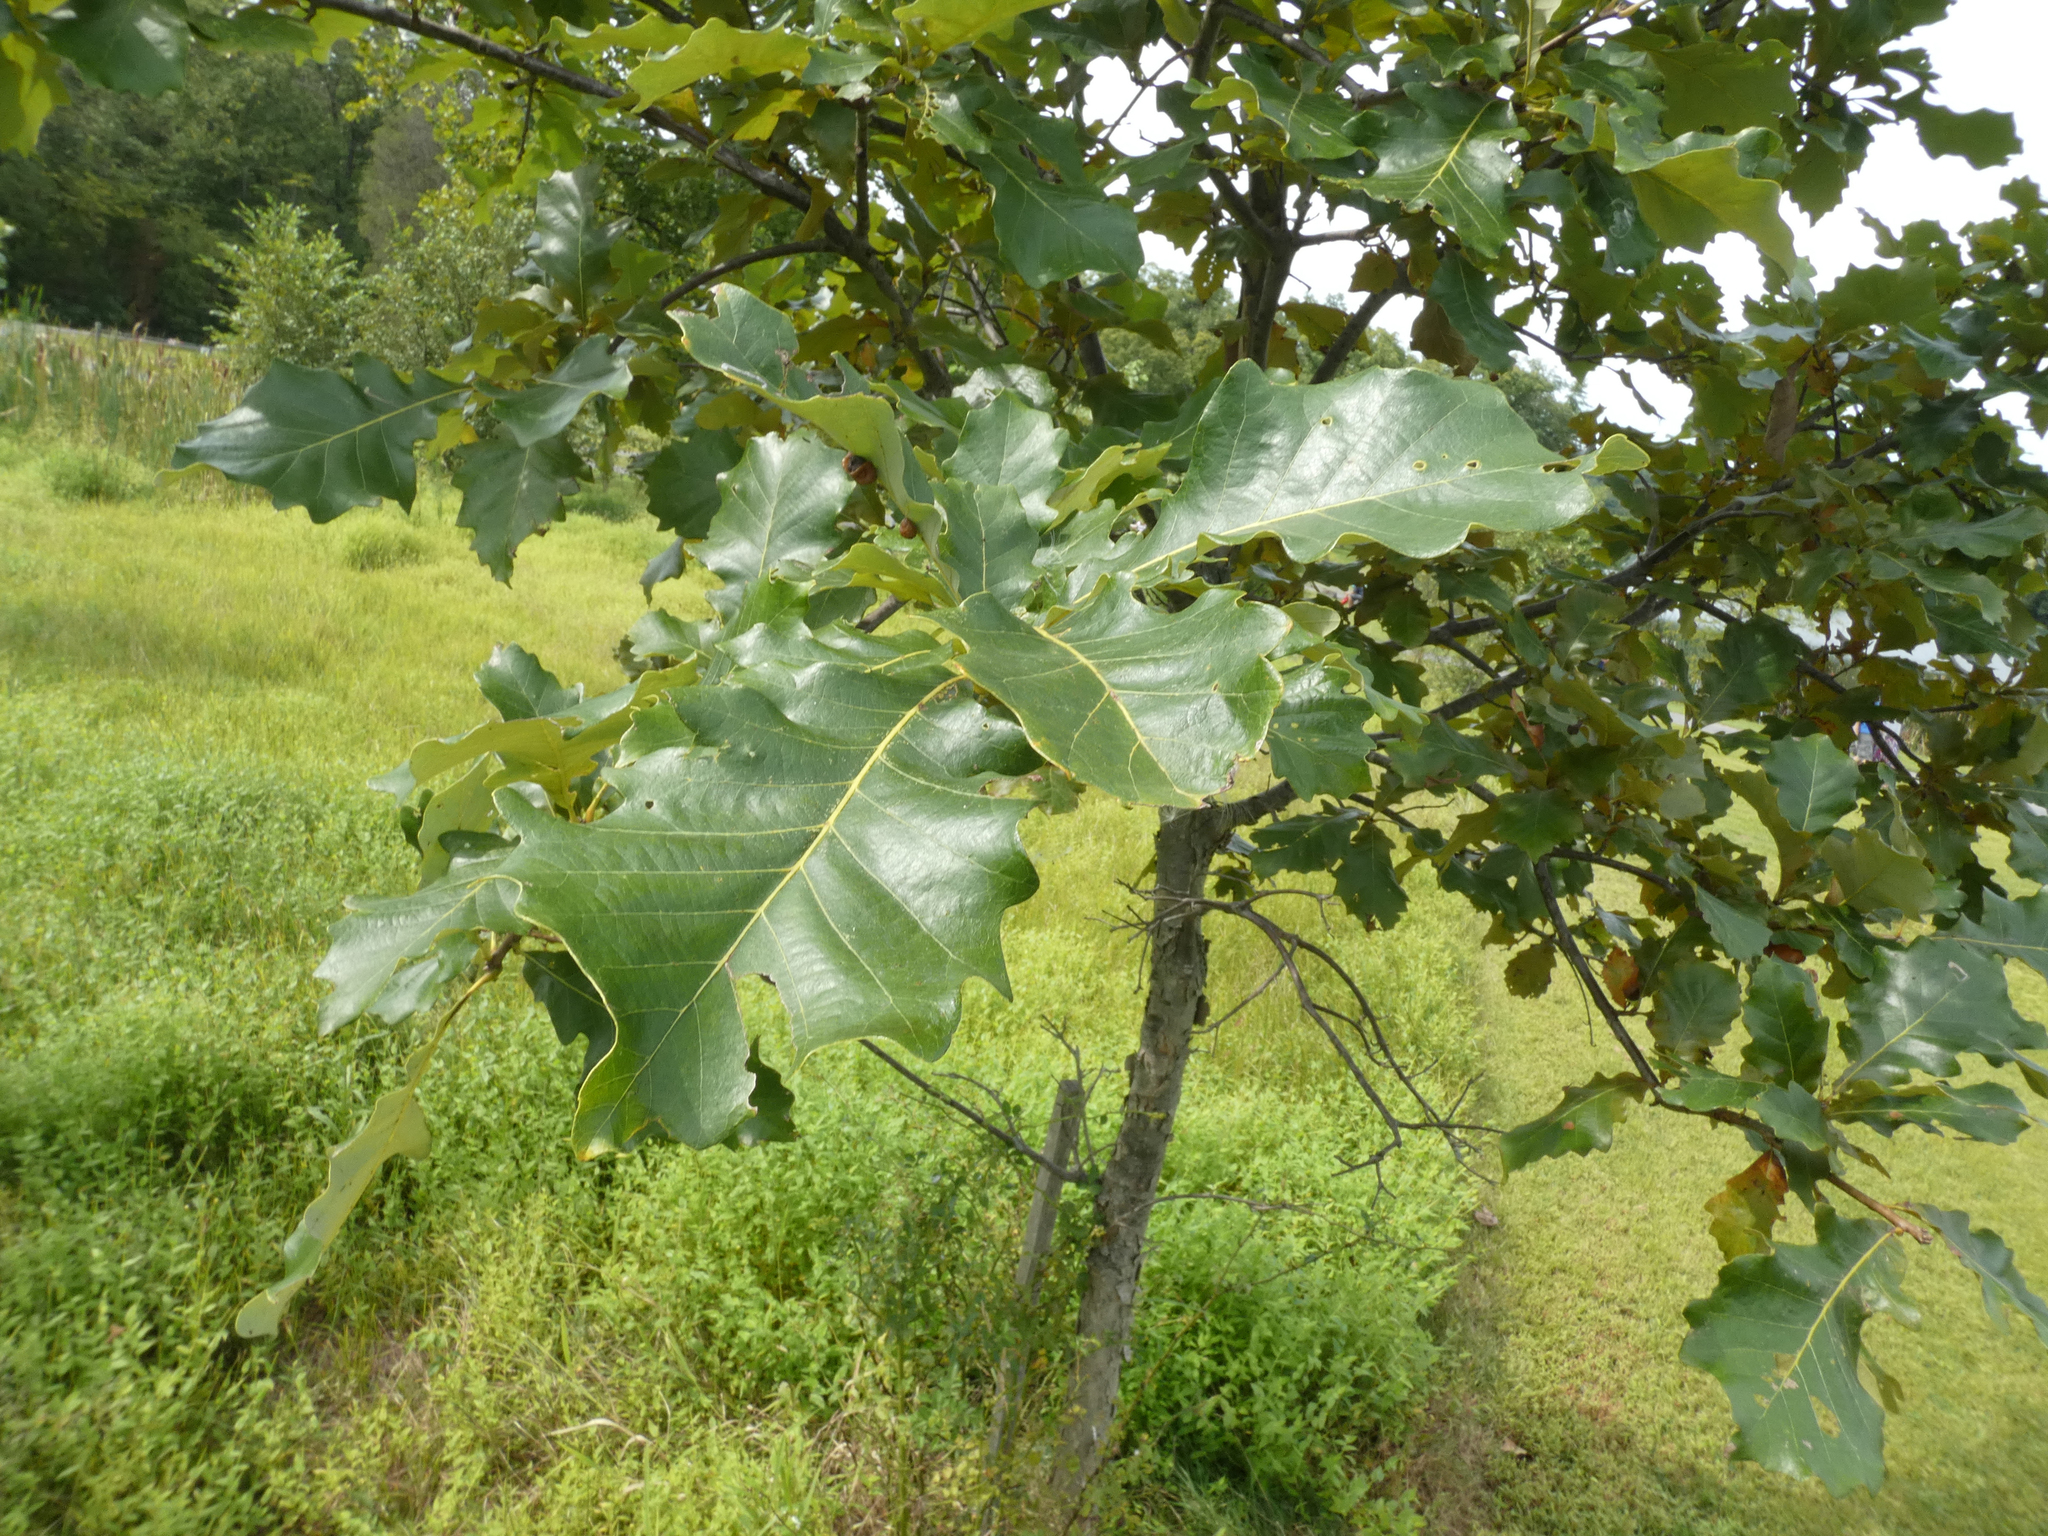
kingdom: Animalia
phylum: Arthropoda
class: Insecta
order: Hymenoptera
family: Cynipidae
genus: Andricus
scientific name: Andricus
